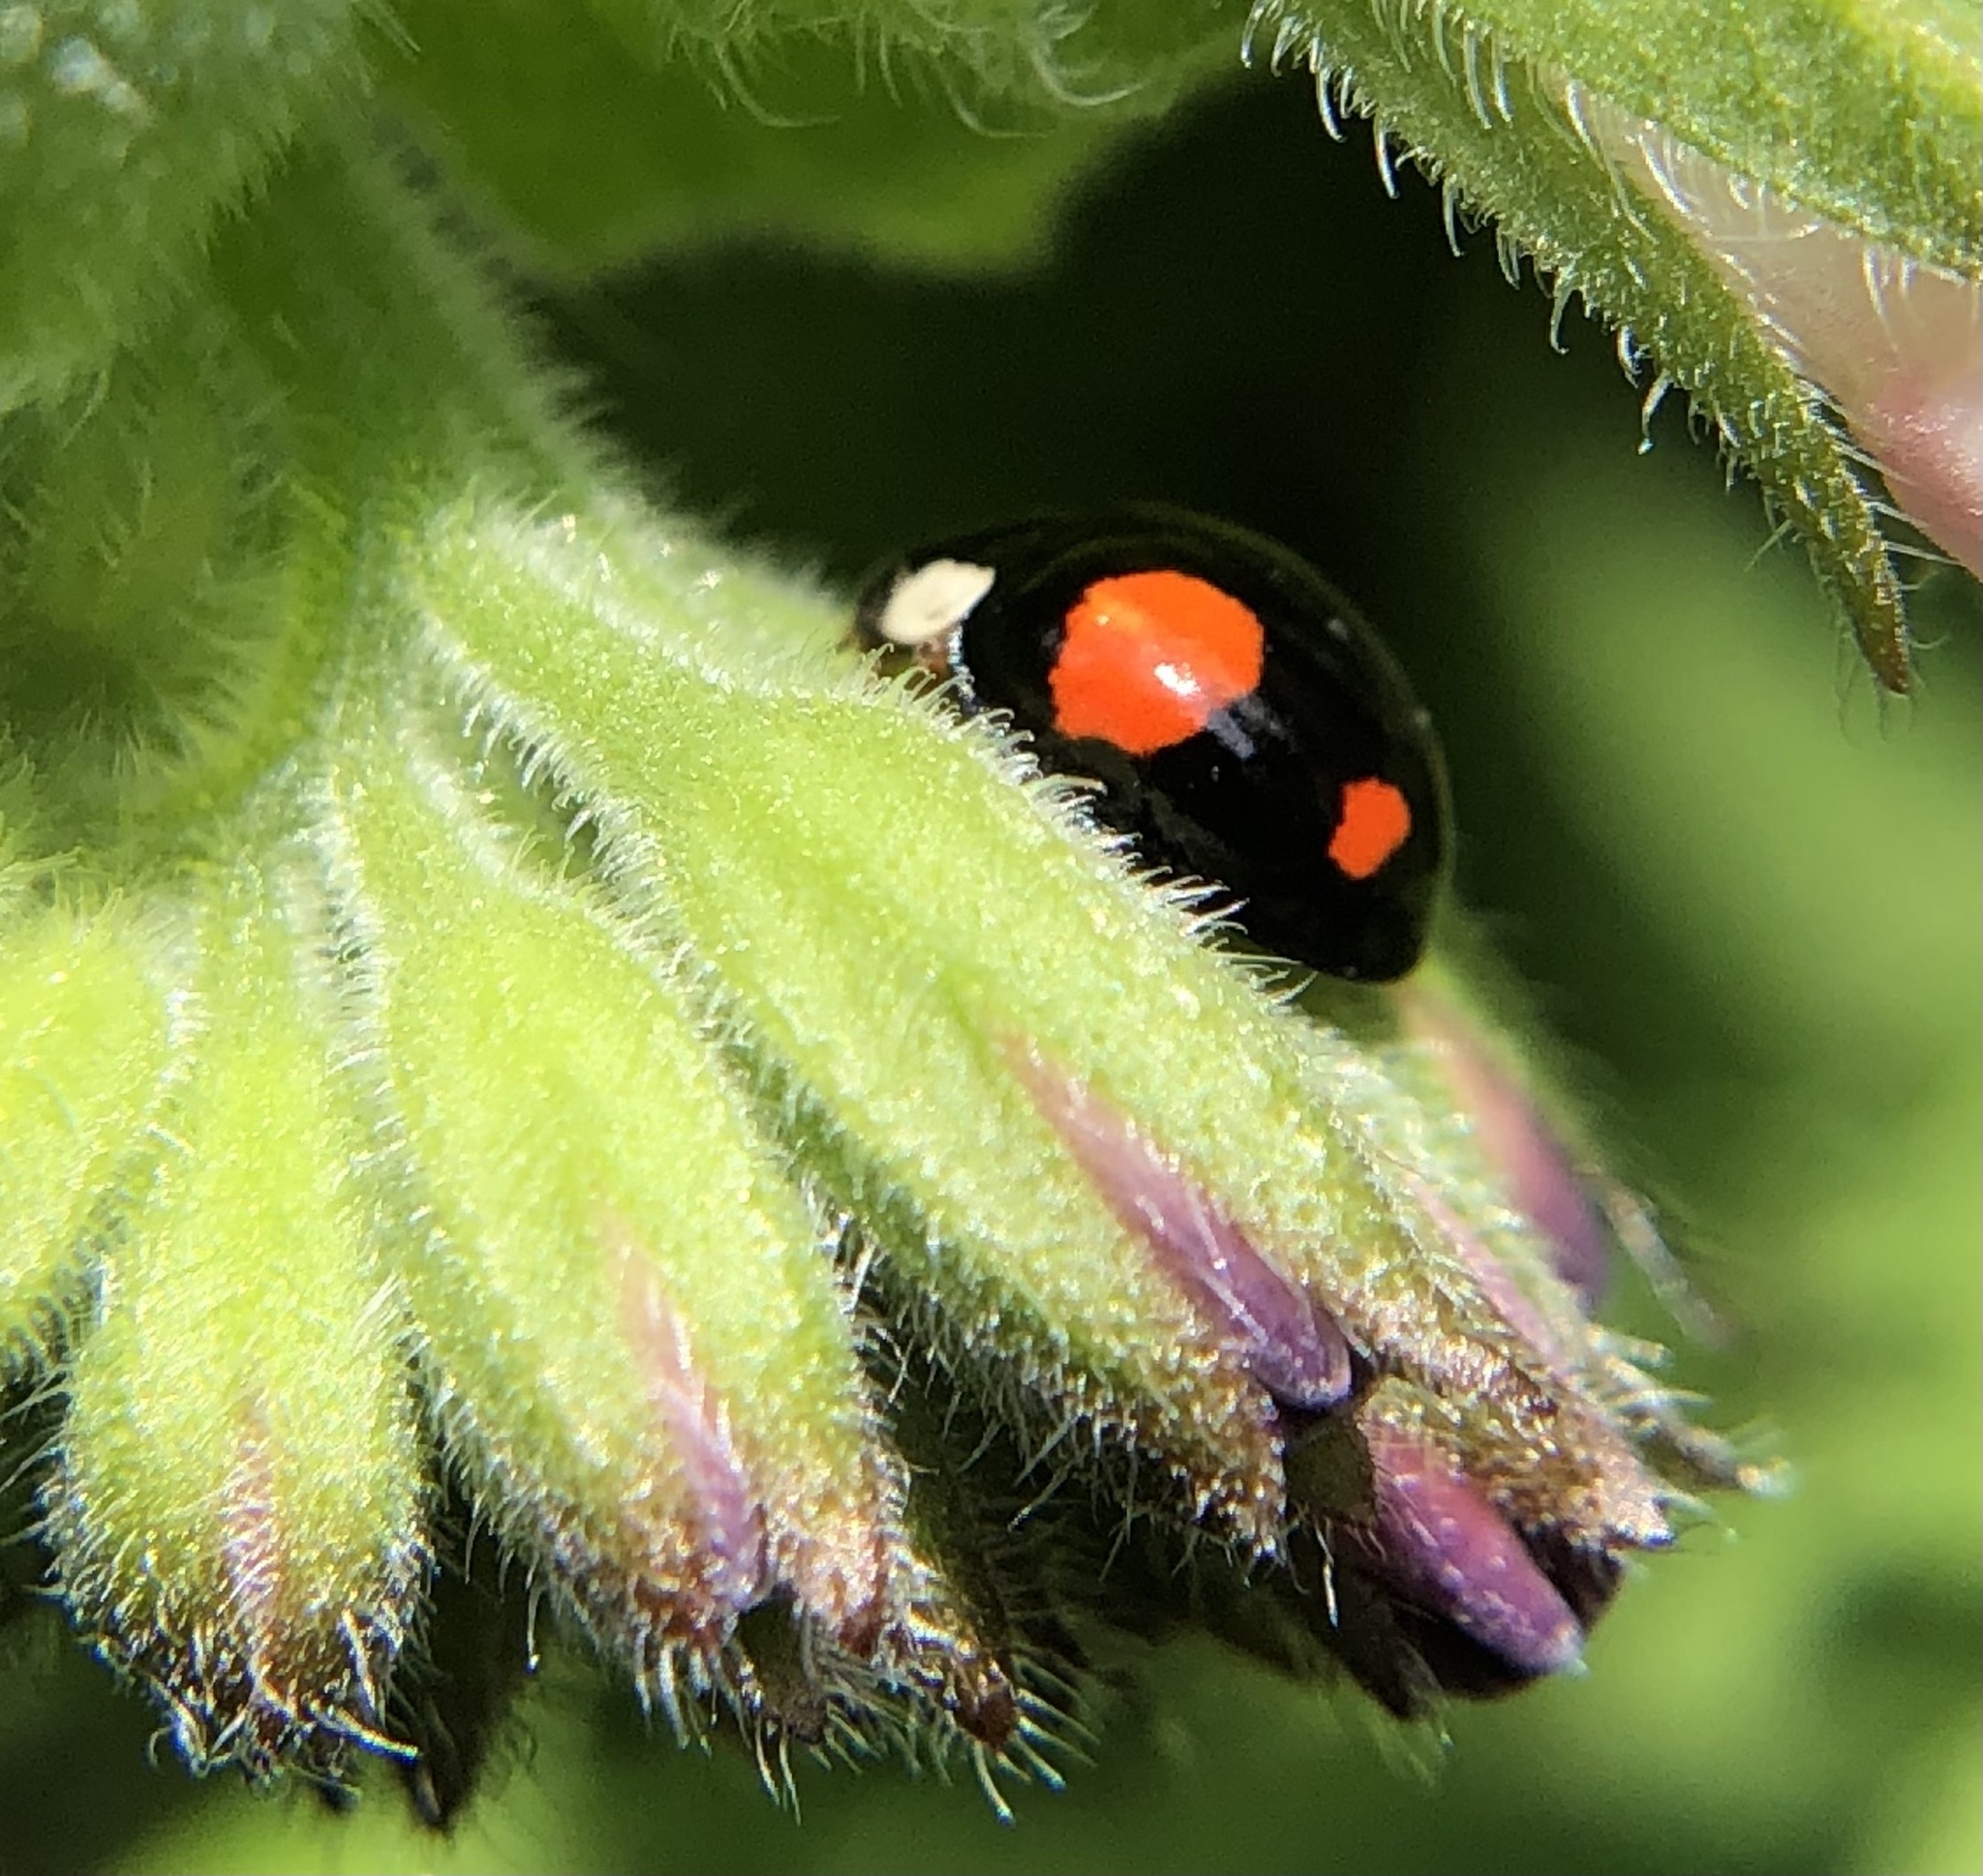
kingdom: Animalia
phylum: Arthropoda
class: Insecta
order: Coleoptera
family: Coccinellidae
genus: Harmonia
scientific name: Harmonia axyridis
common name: Harlequin ladybird
